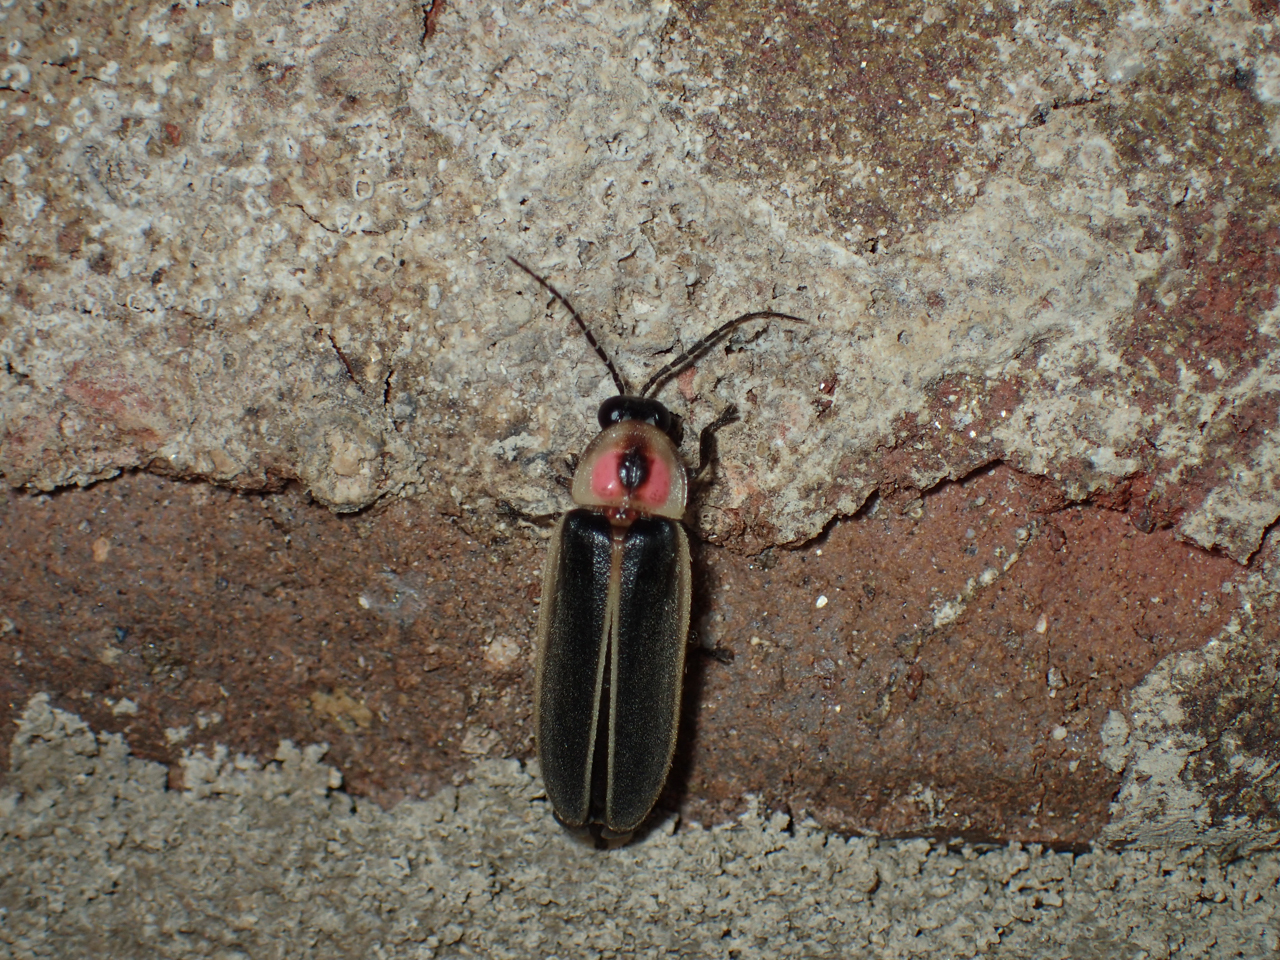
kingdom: Animalia
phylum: Arthropoda
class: Insecta
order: Coleoptera
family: Lampyridae
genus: Photinus
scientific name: Photinus pyralis
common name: Big dipper firefly
